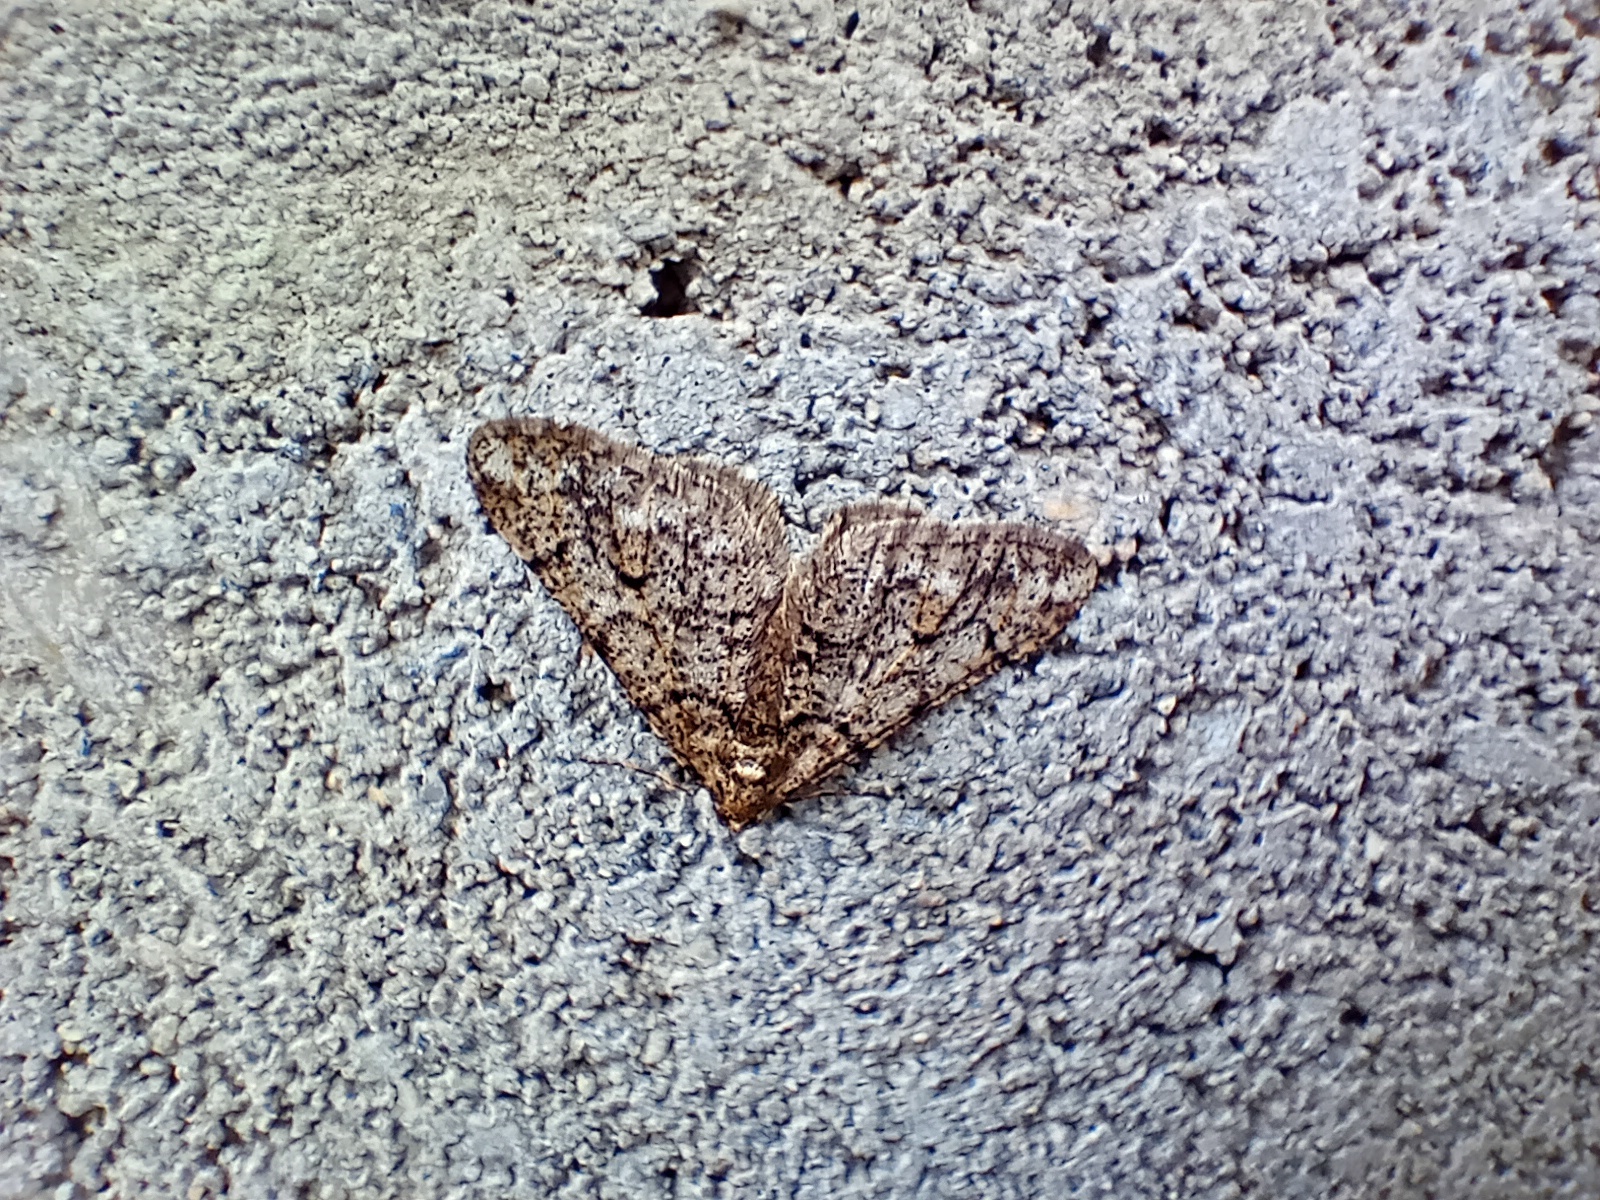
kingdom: Animalia
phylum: Arthropoda
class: Insecta
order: Lepidoptera
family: Geometridae
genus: Agriopis
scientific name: Agriopis leucophaearia
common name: Spring usher
